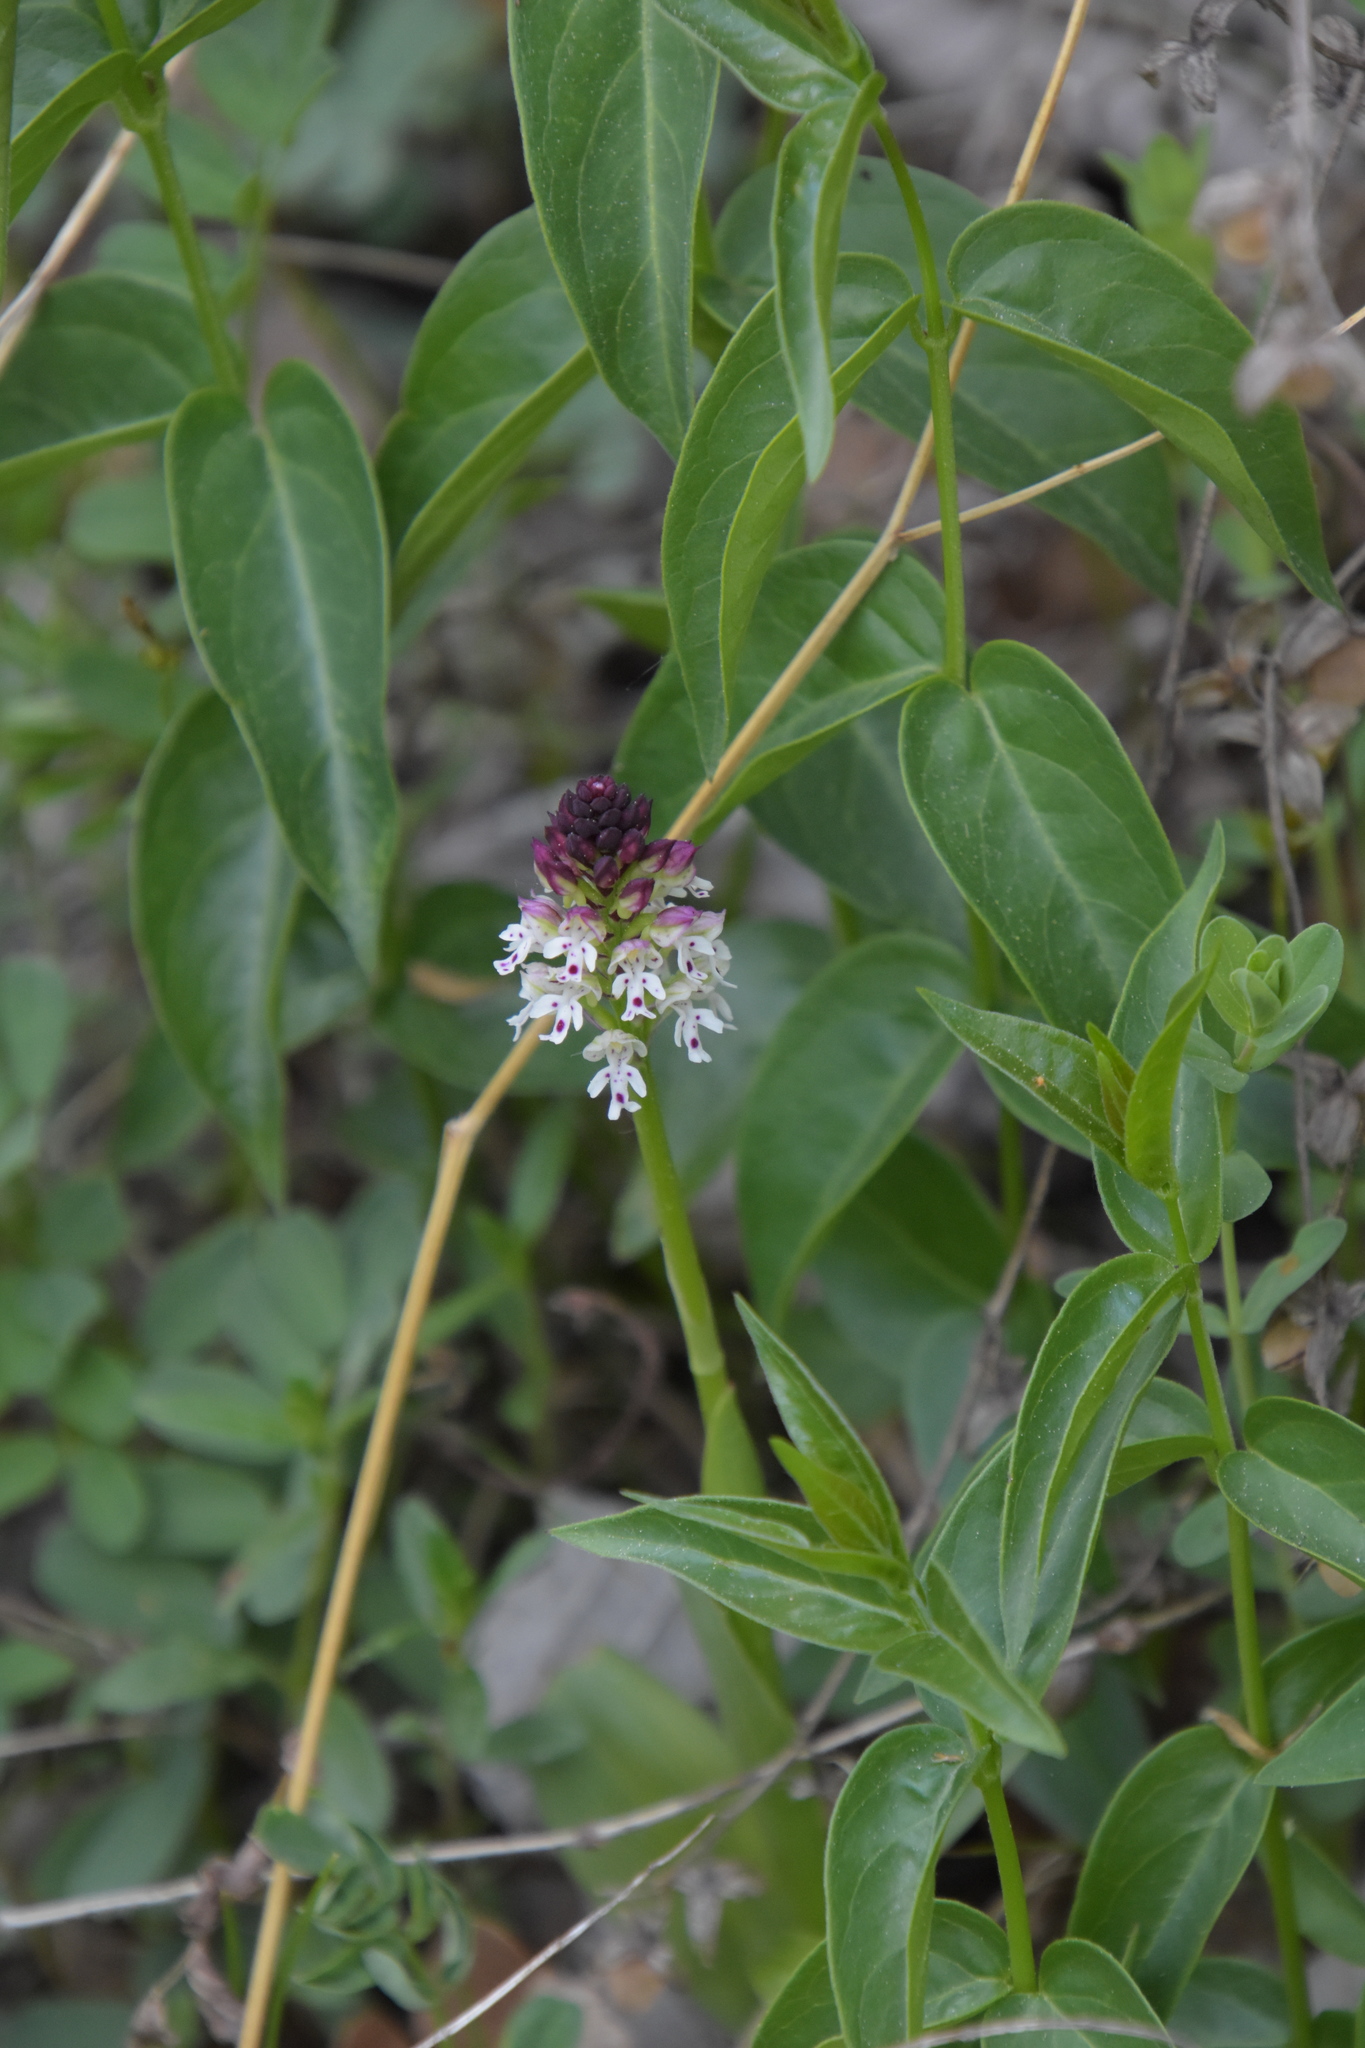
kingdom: Plantae
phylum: Tracheophyta
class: Liliopsida
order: Asparagales
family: Orchidaceae
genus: Neotinea
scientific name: Neotinea ustulata
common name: Burnt orchid
